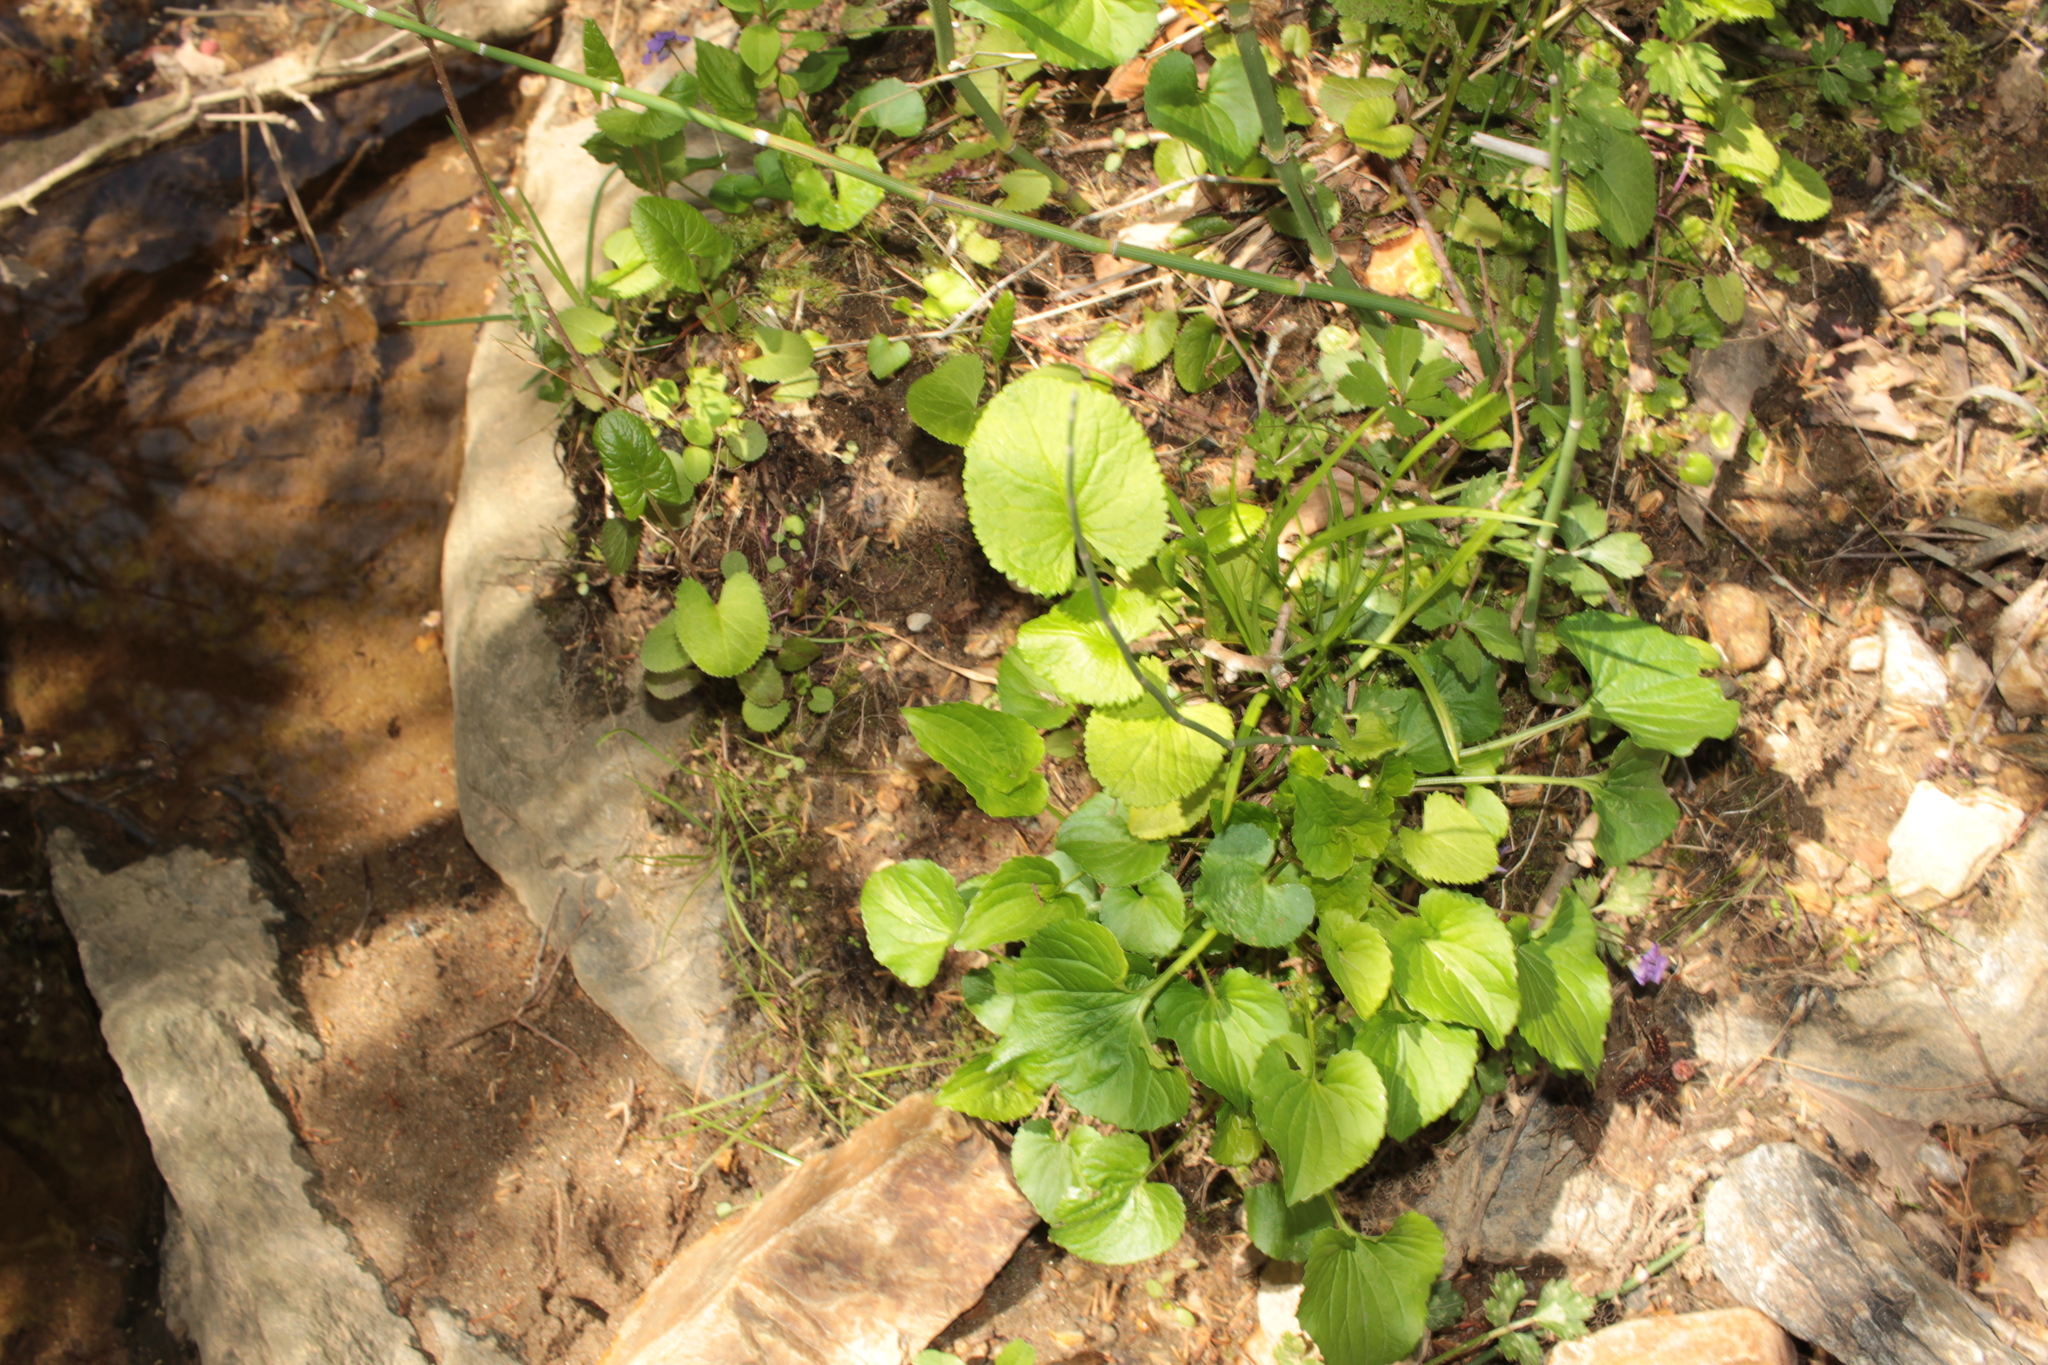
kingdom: Plantae
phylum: Tracheophyta
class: Magnoliopsida
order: Asterales
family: Asteraceae
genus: Packera
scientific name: Packera aurea
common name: Golden groundsel
